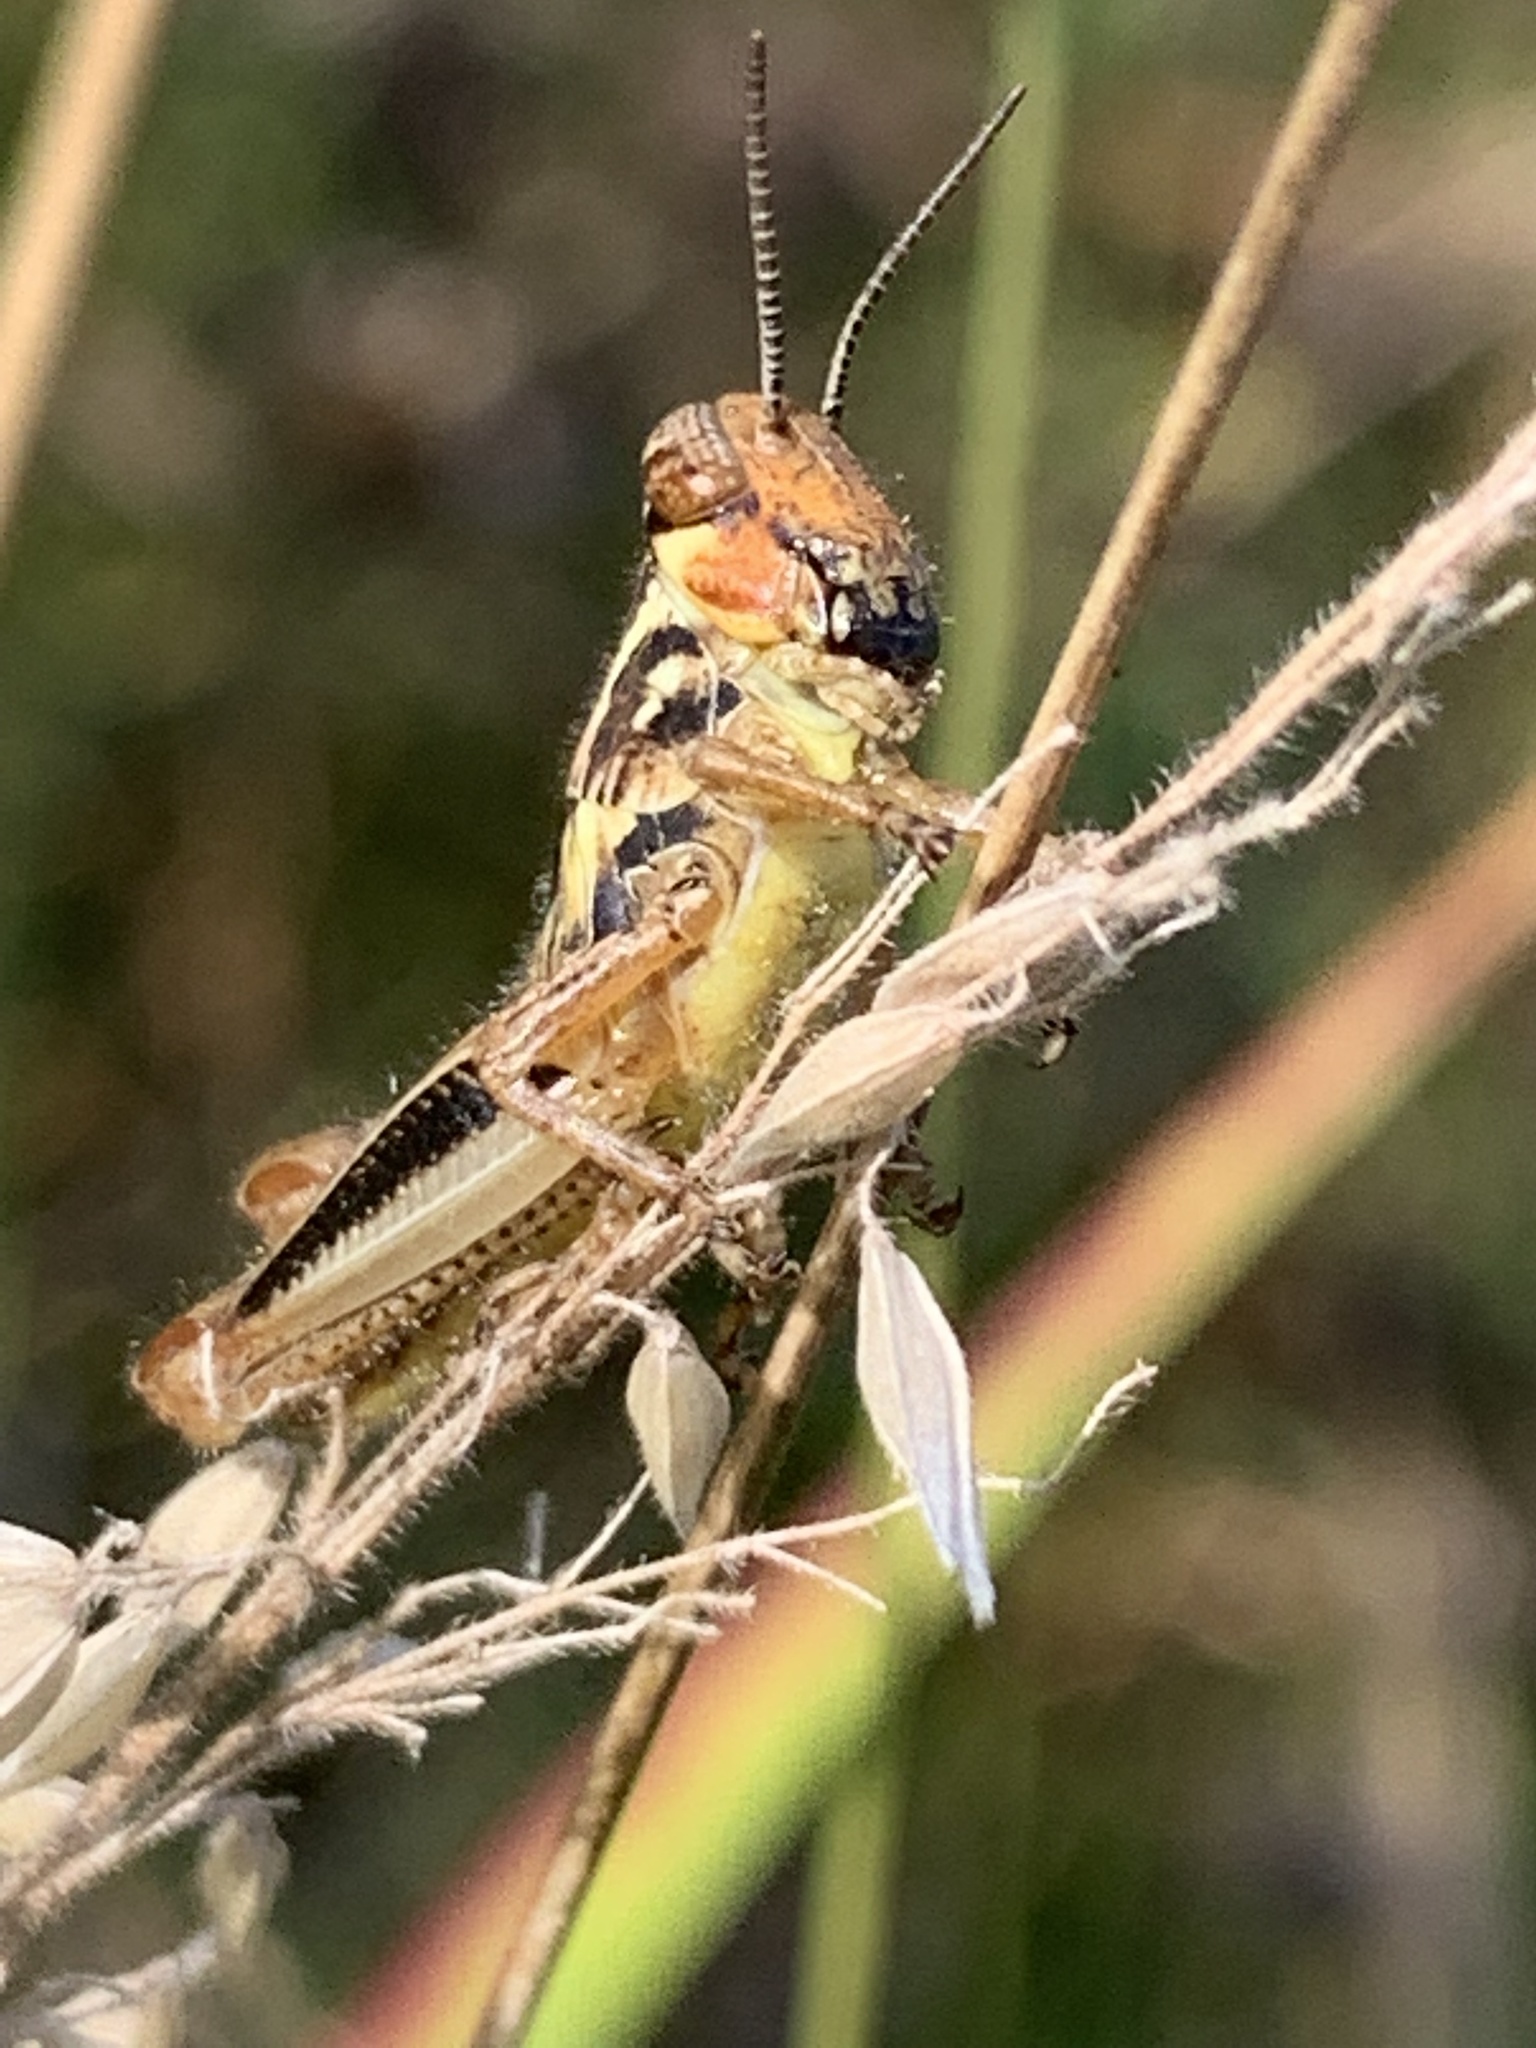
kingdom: Animalia
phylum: Arthropoda
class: Insecta
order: Orthoptera
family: Acrididae
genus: Melanoplus
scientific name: Melanoplus femurrubrum
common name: Red-legged grasshopper
